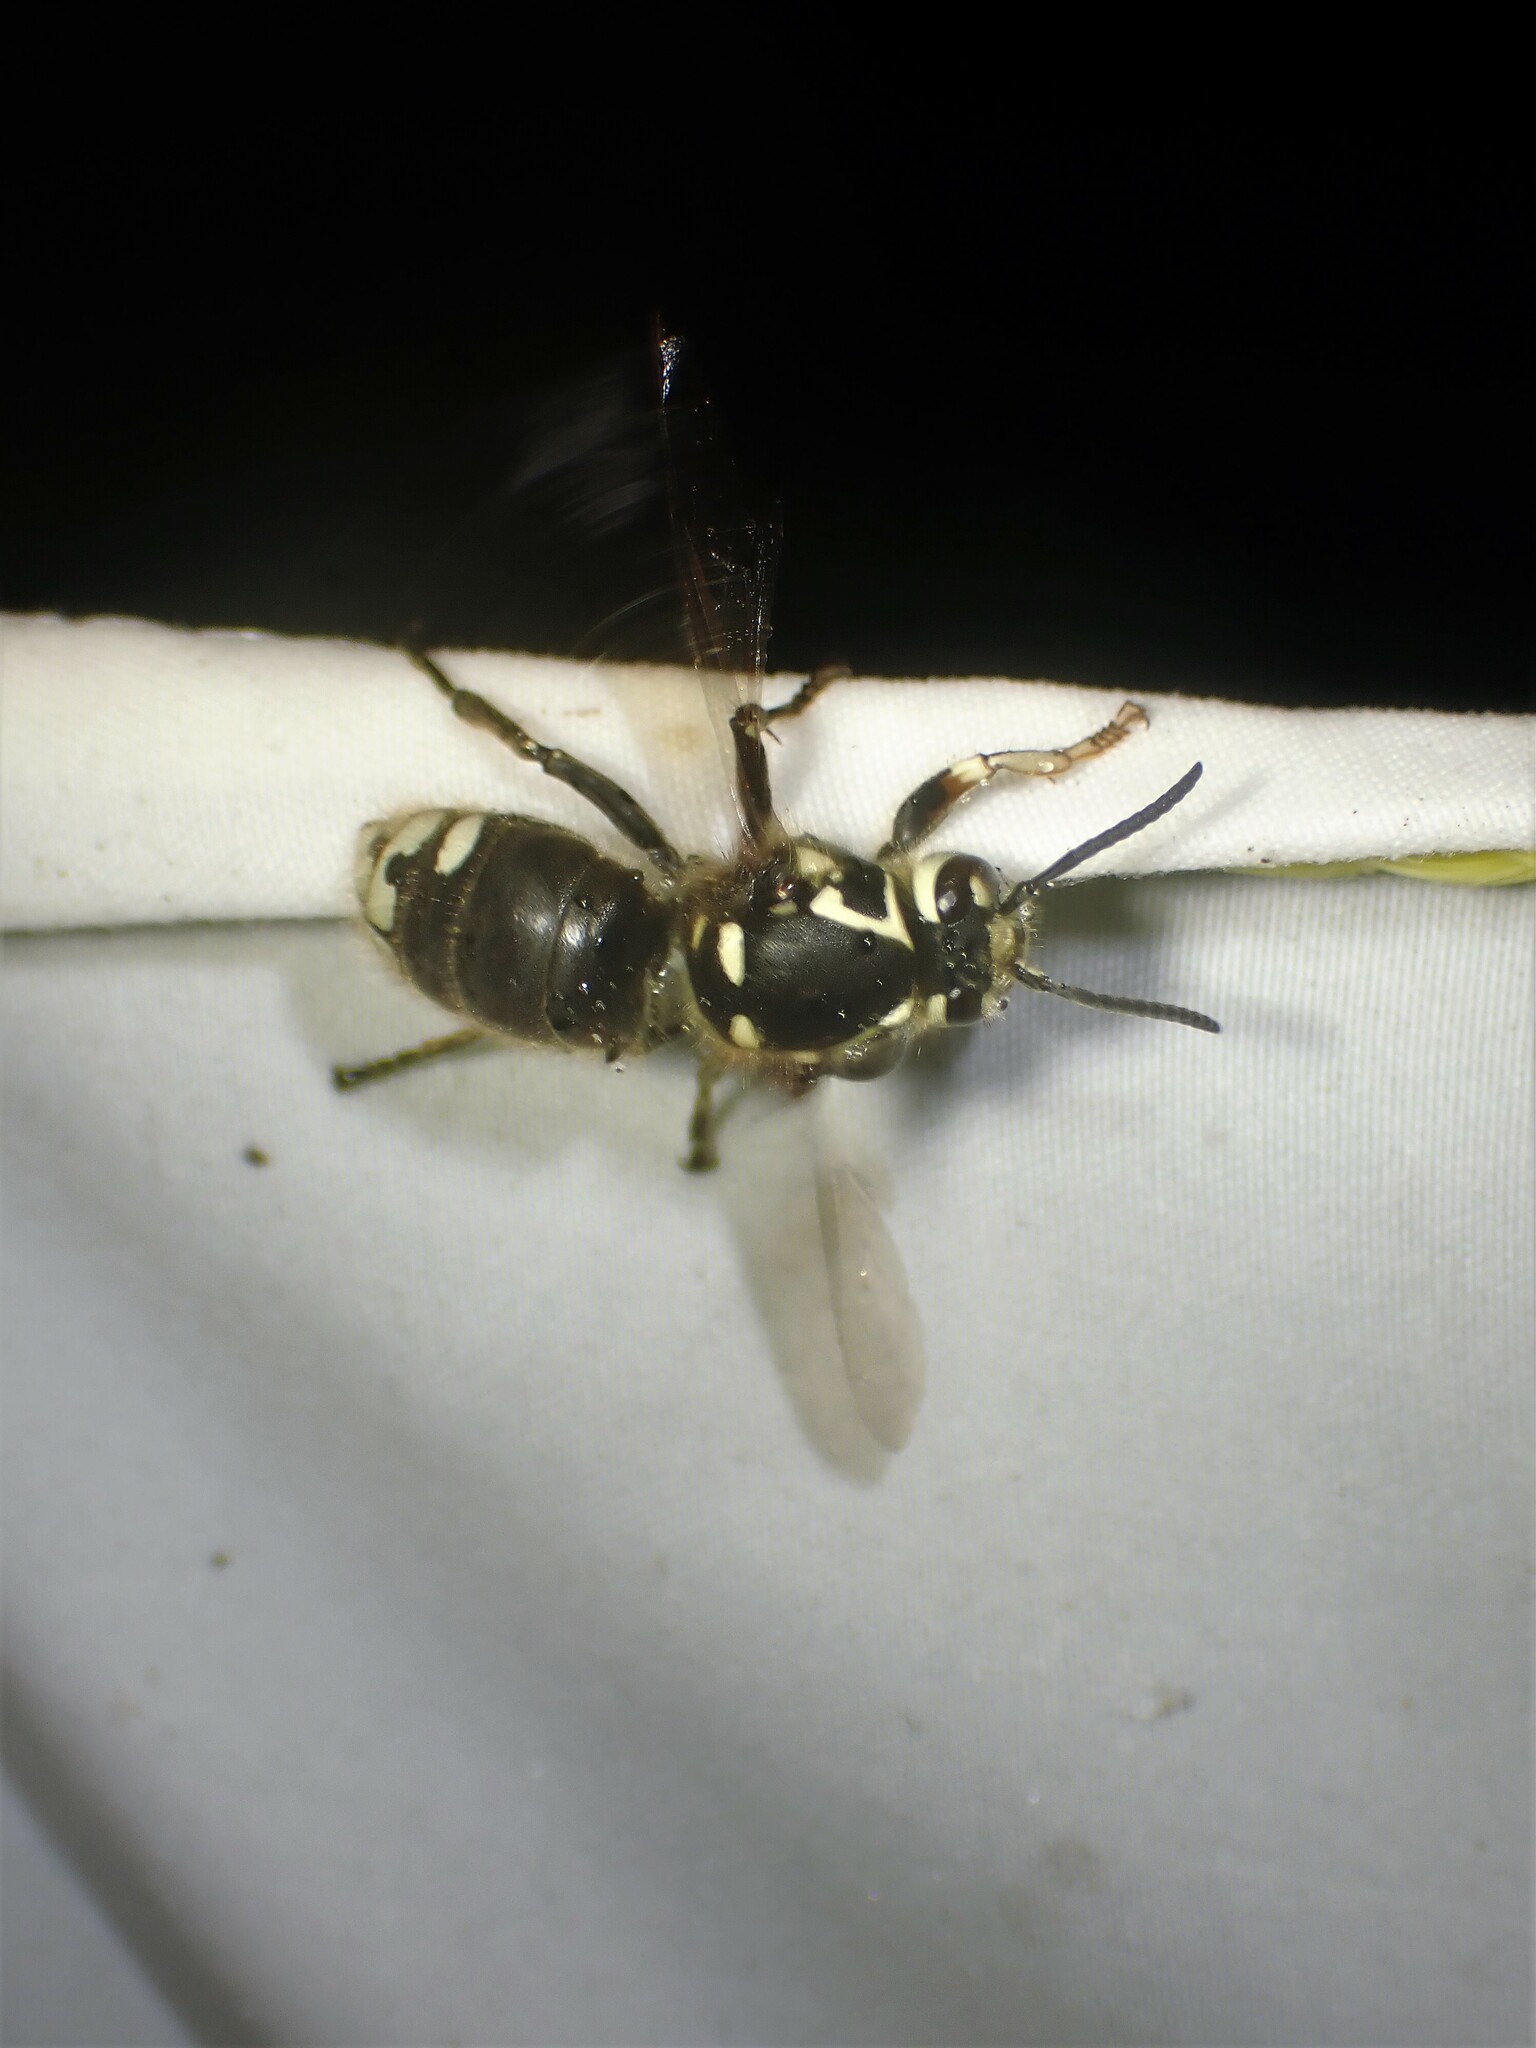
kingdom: Animalia
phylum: Arthropoda
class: Insecta
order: Hymenoptera
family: Vespidae
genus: Dolichovespula
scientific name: Dolichovespula maculata
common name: Bald-faced hornet
